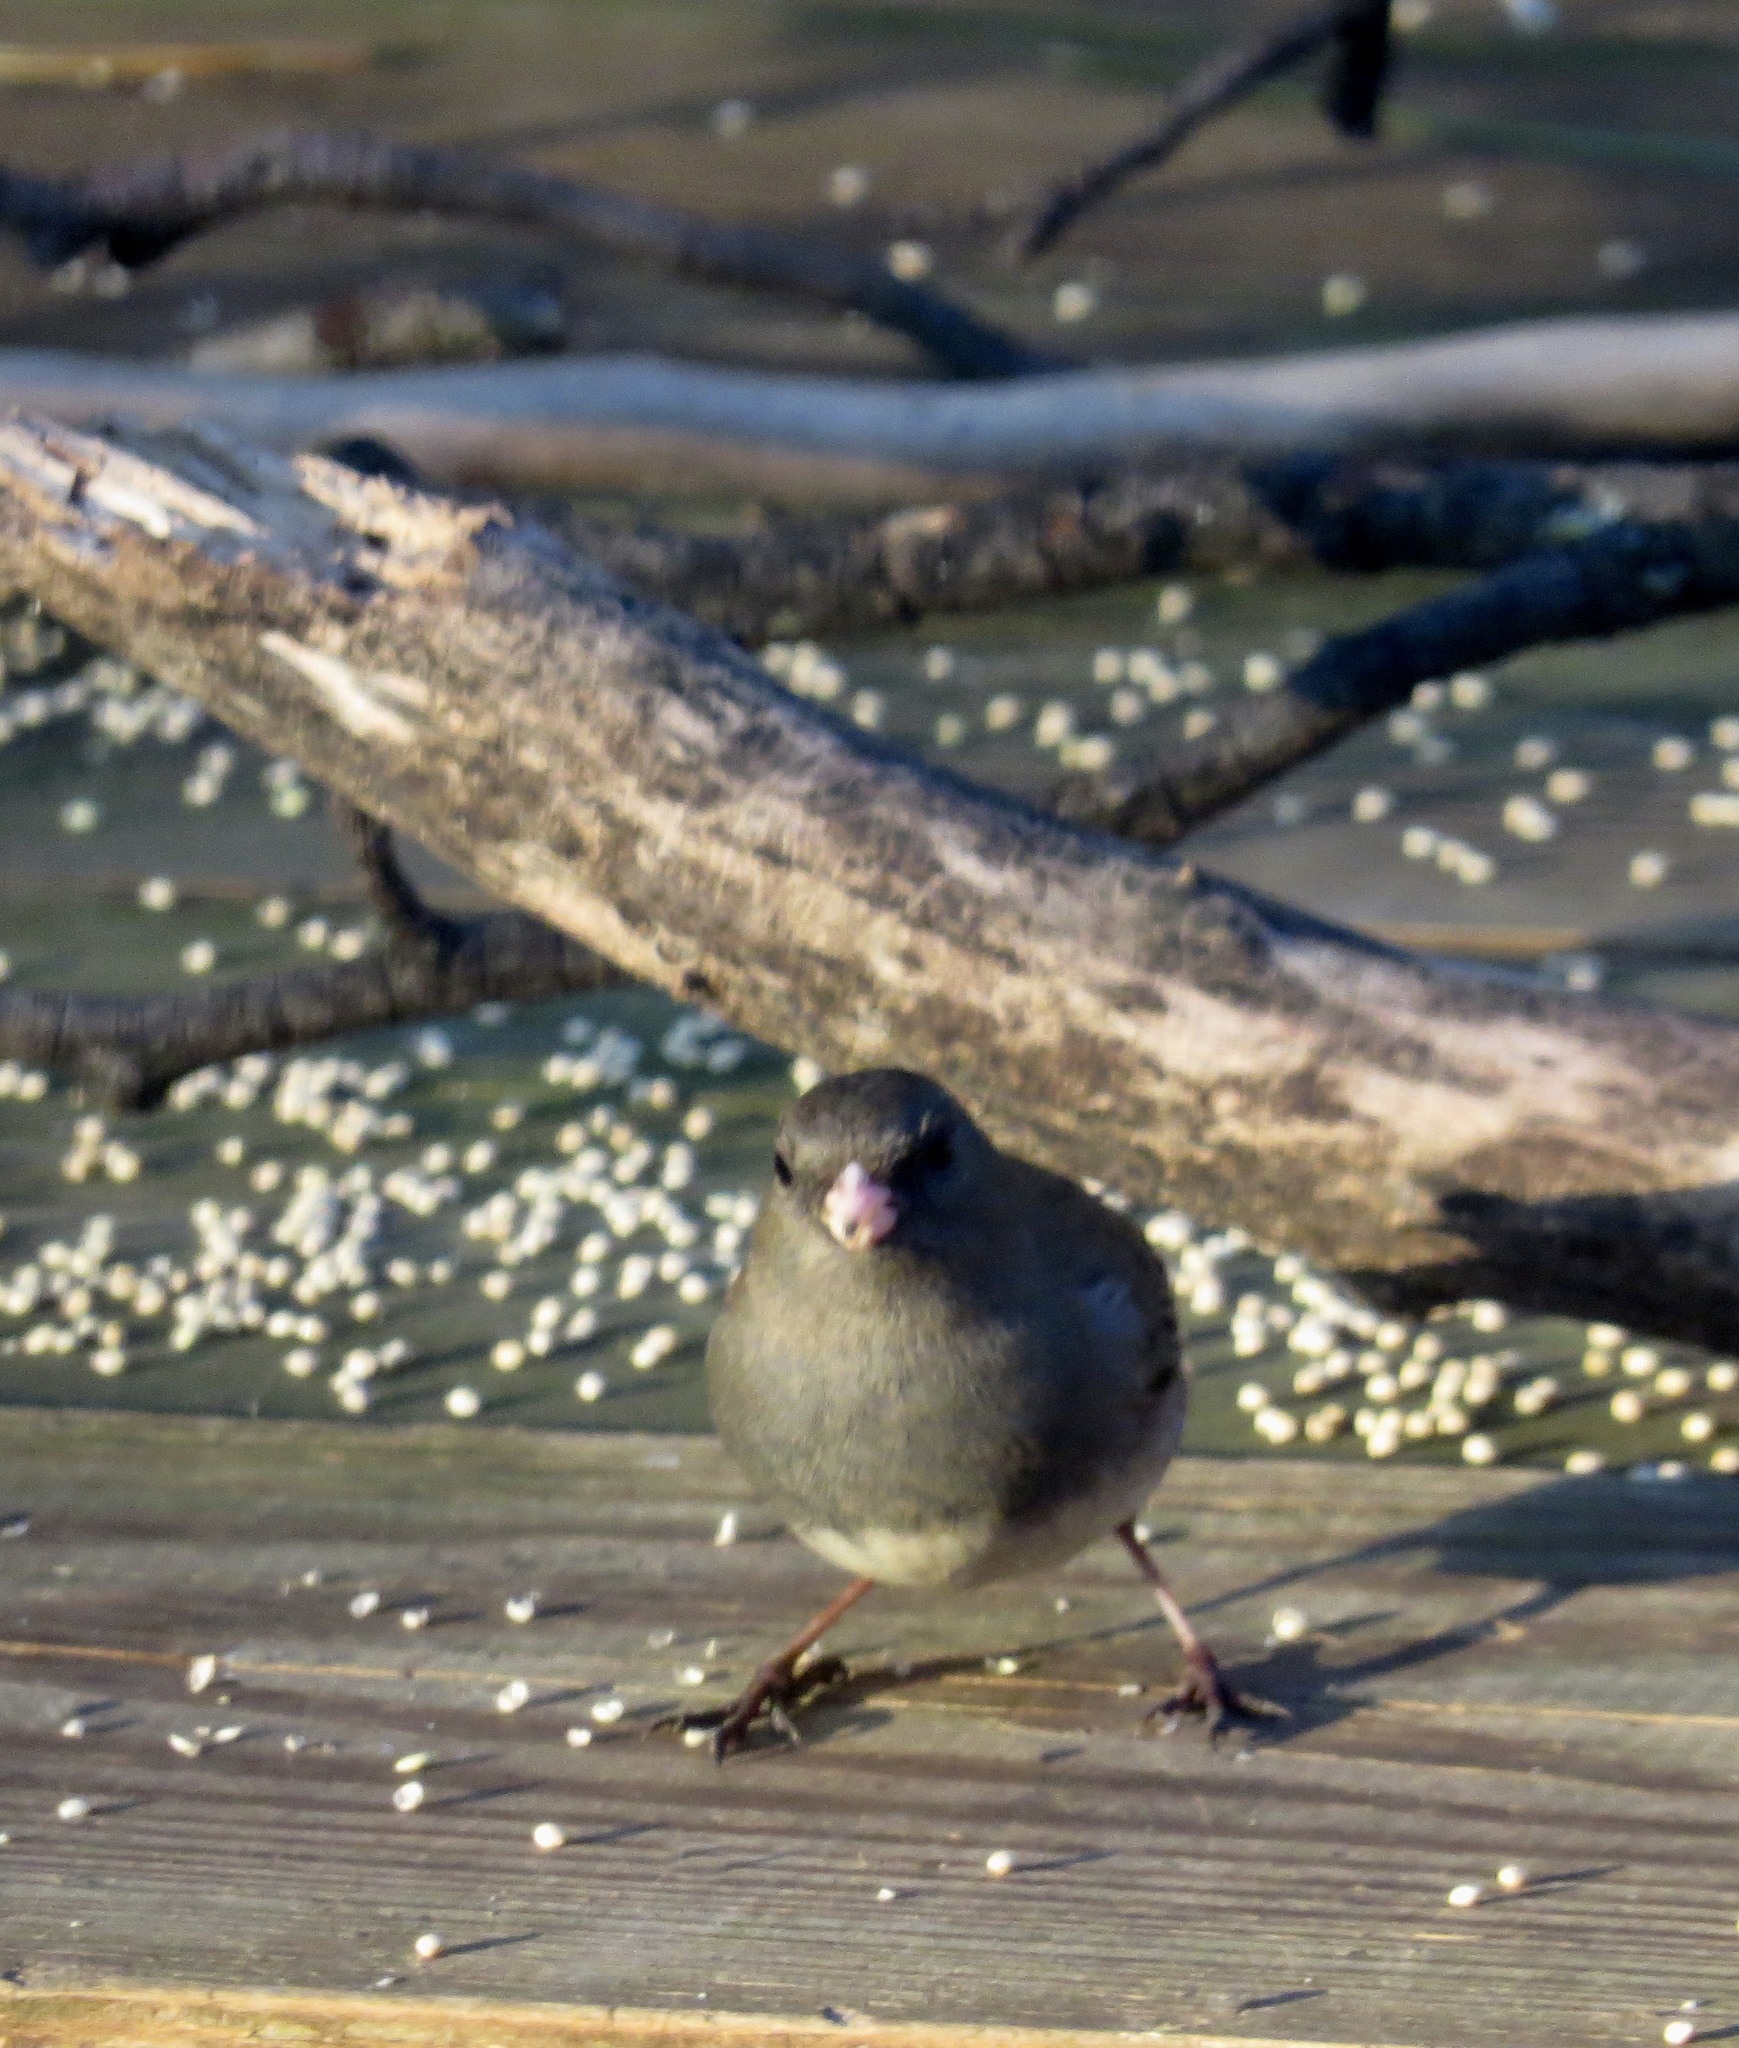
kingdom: Animalia
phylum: Chordata
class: Aves
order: Passeriformes
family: Passerellidae
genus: Junco
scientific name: Junco hyemalis
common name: Dark-eyed junco
